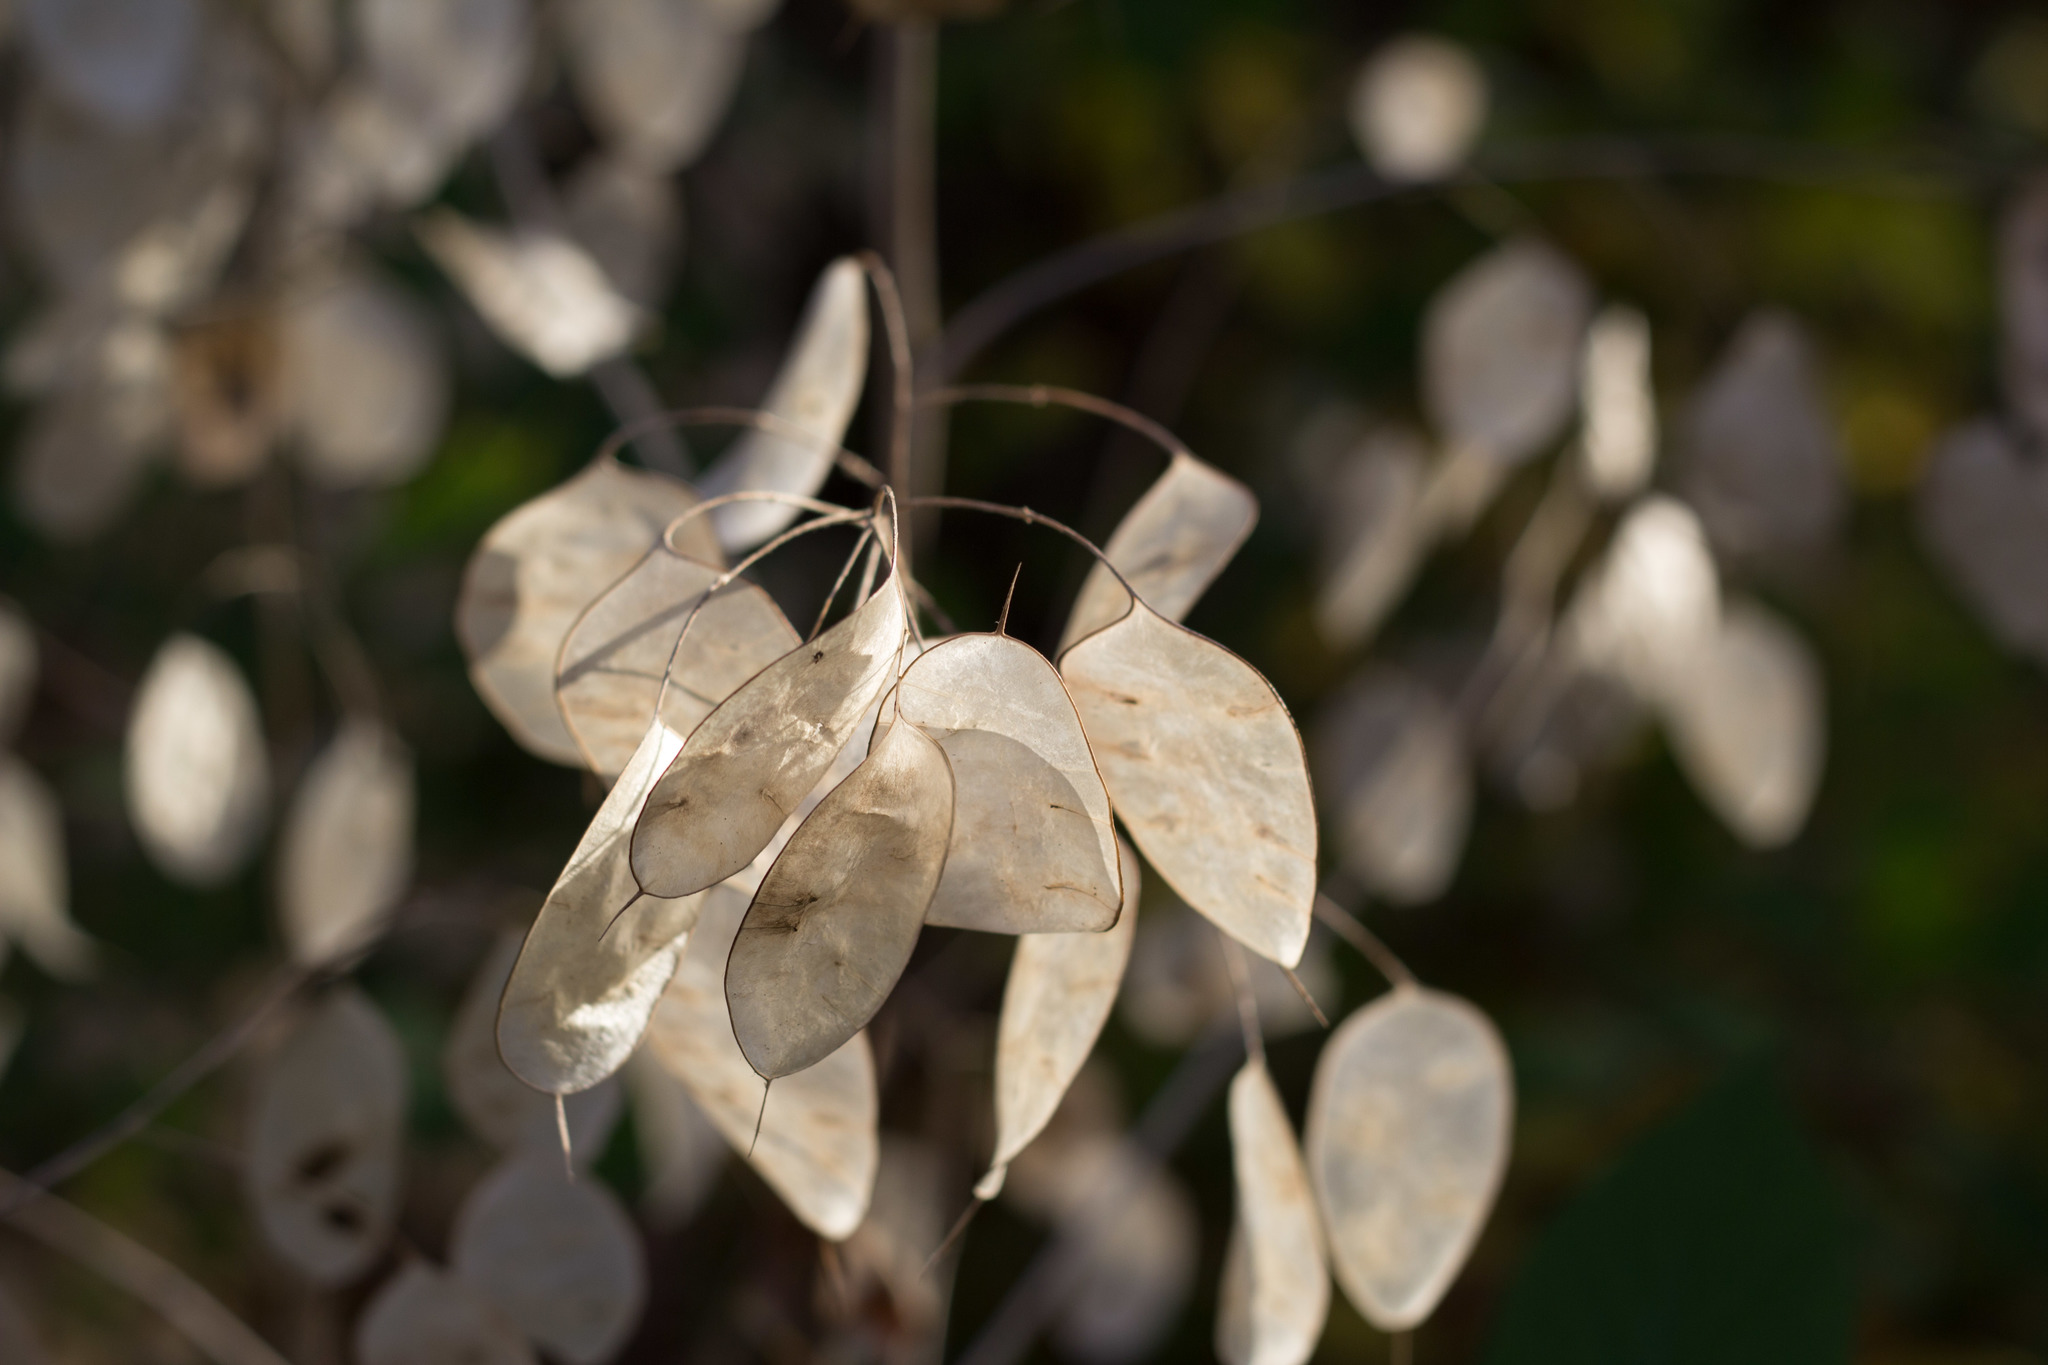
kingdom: Plantae
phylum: Tracheophyta
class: Magnoliopsida
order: Brassicales
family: Brassicaceae
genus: Lunaria
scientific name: Lunaria annua
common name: Honesty
